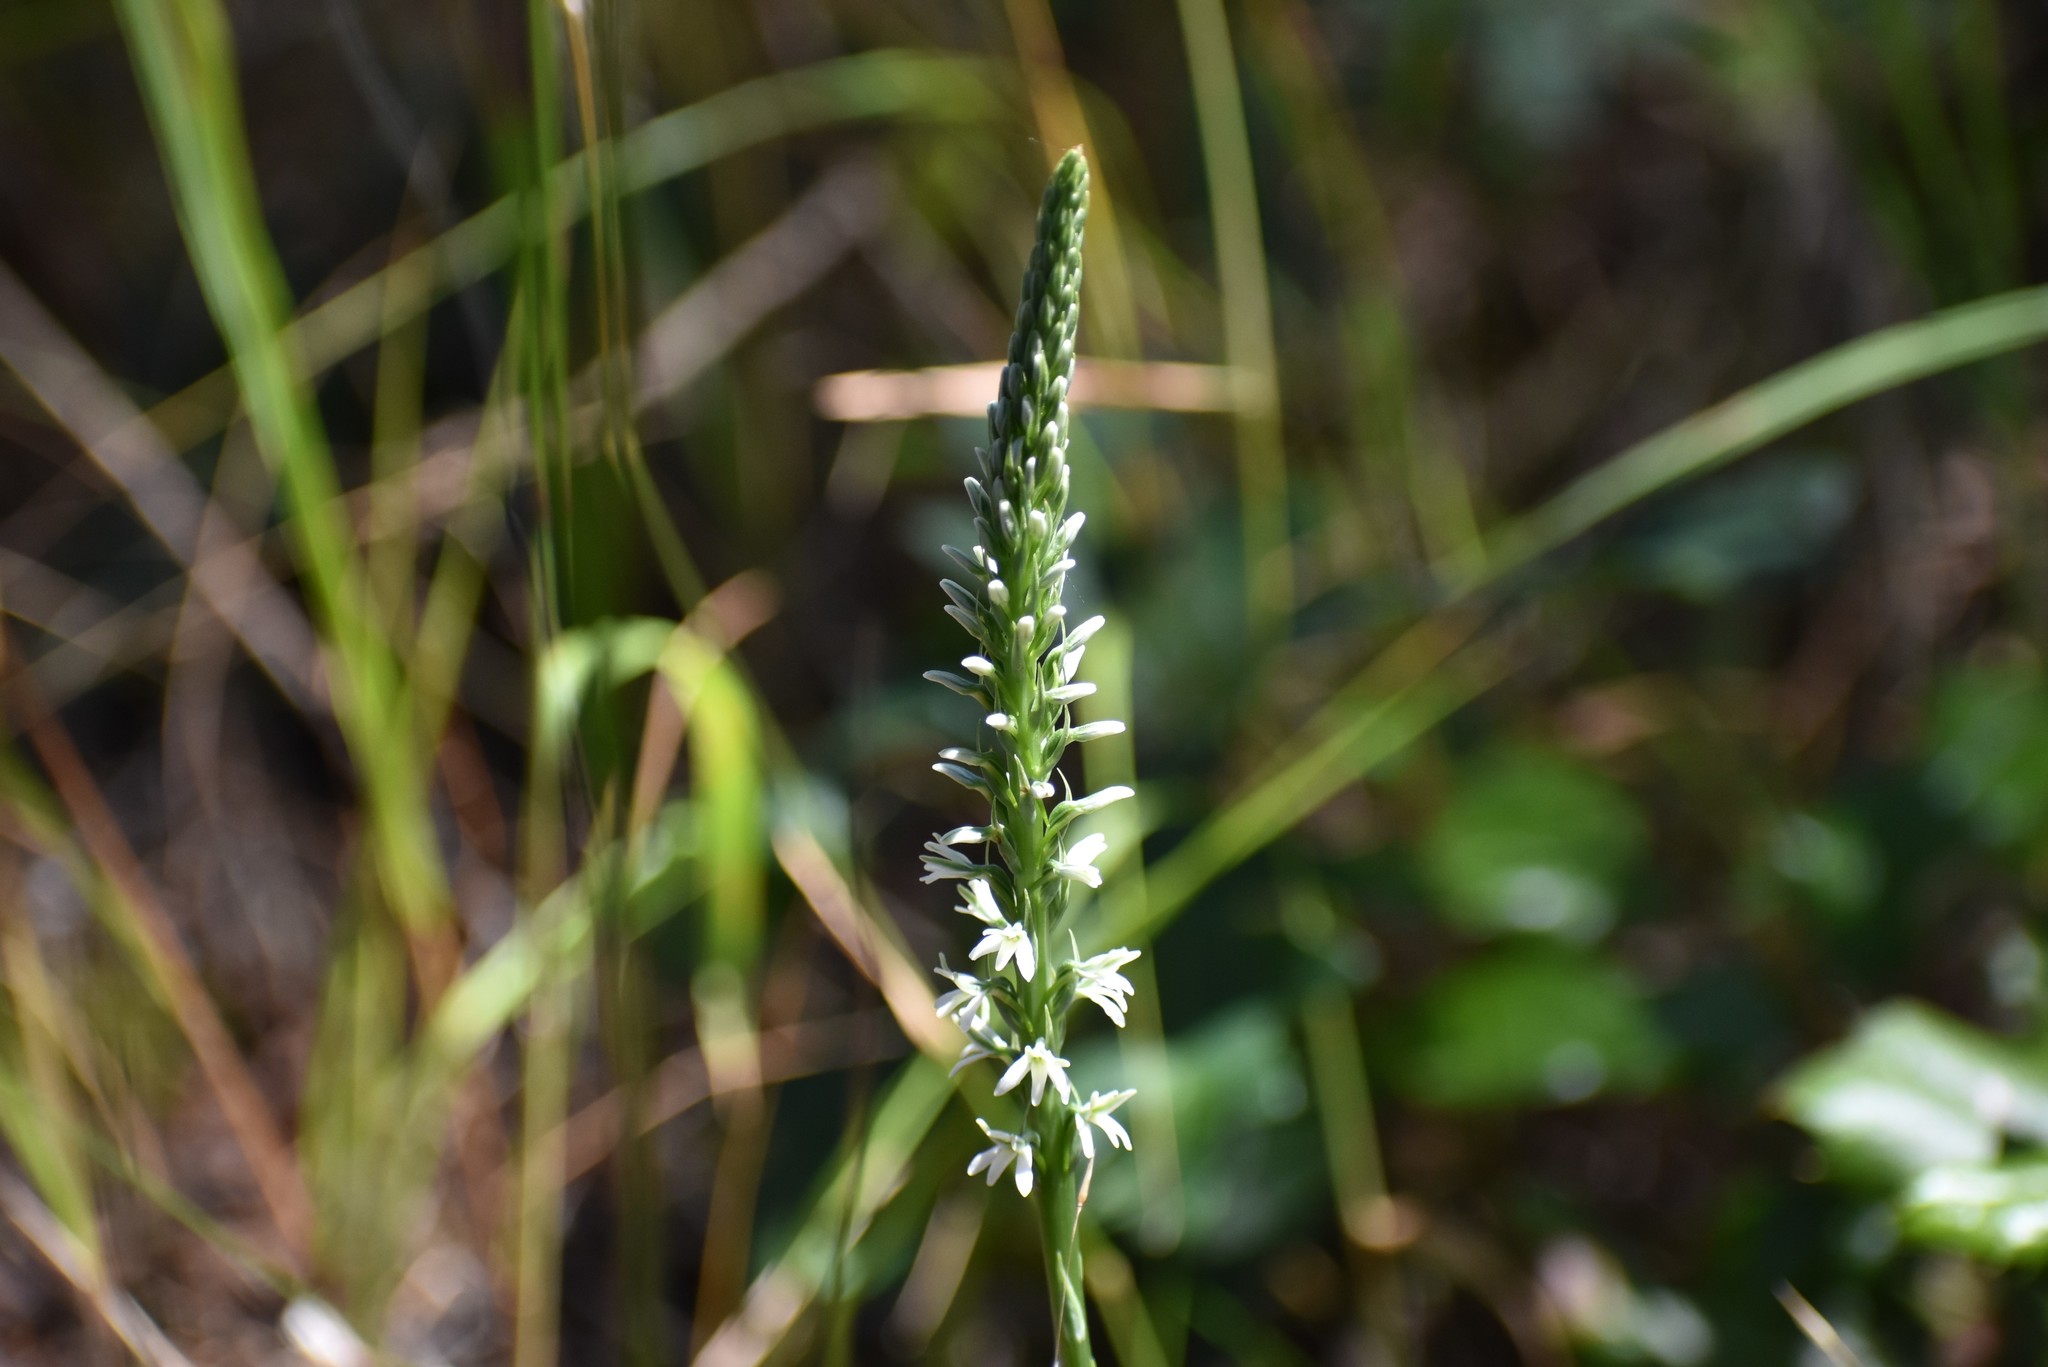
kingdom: Plantae
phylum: Tracheophyta
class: Liliopsida
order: Asparagales
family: Orchidaceae
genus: Platanthera
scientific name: Platanthera elegans
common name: Coast piperia
